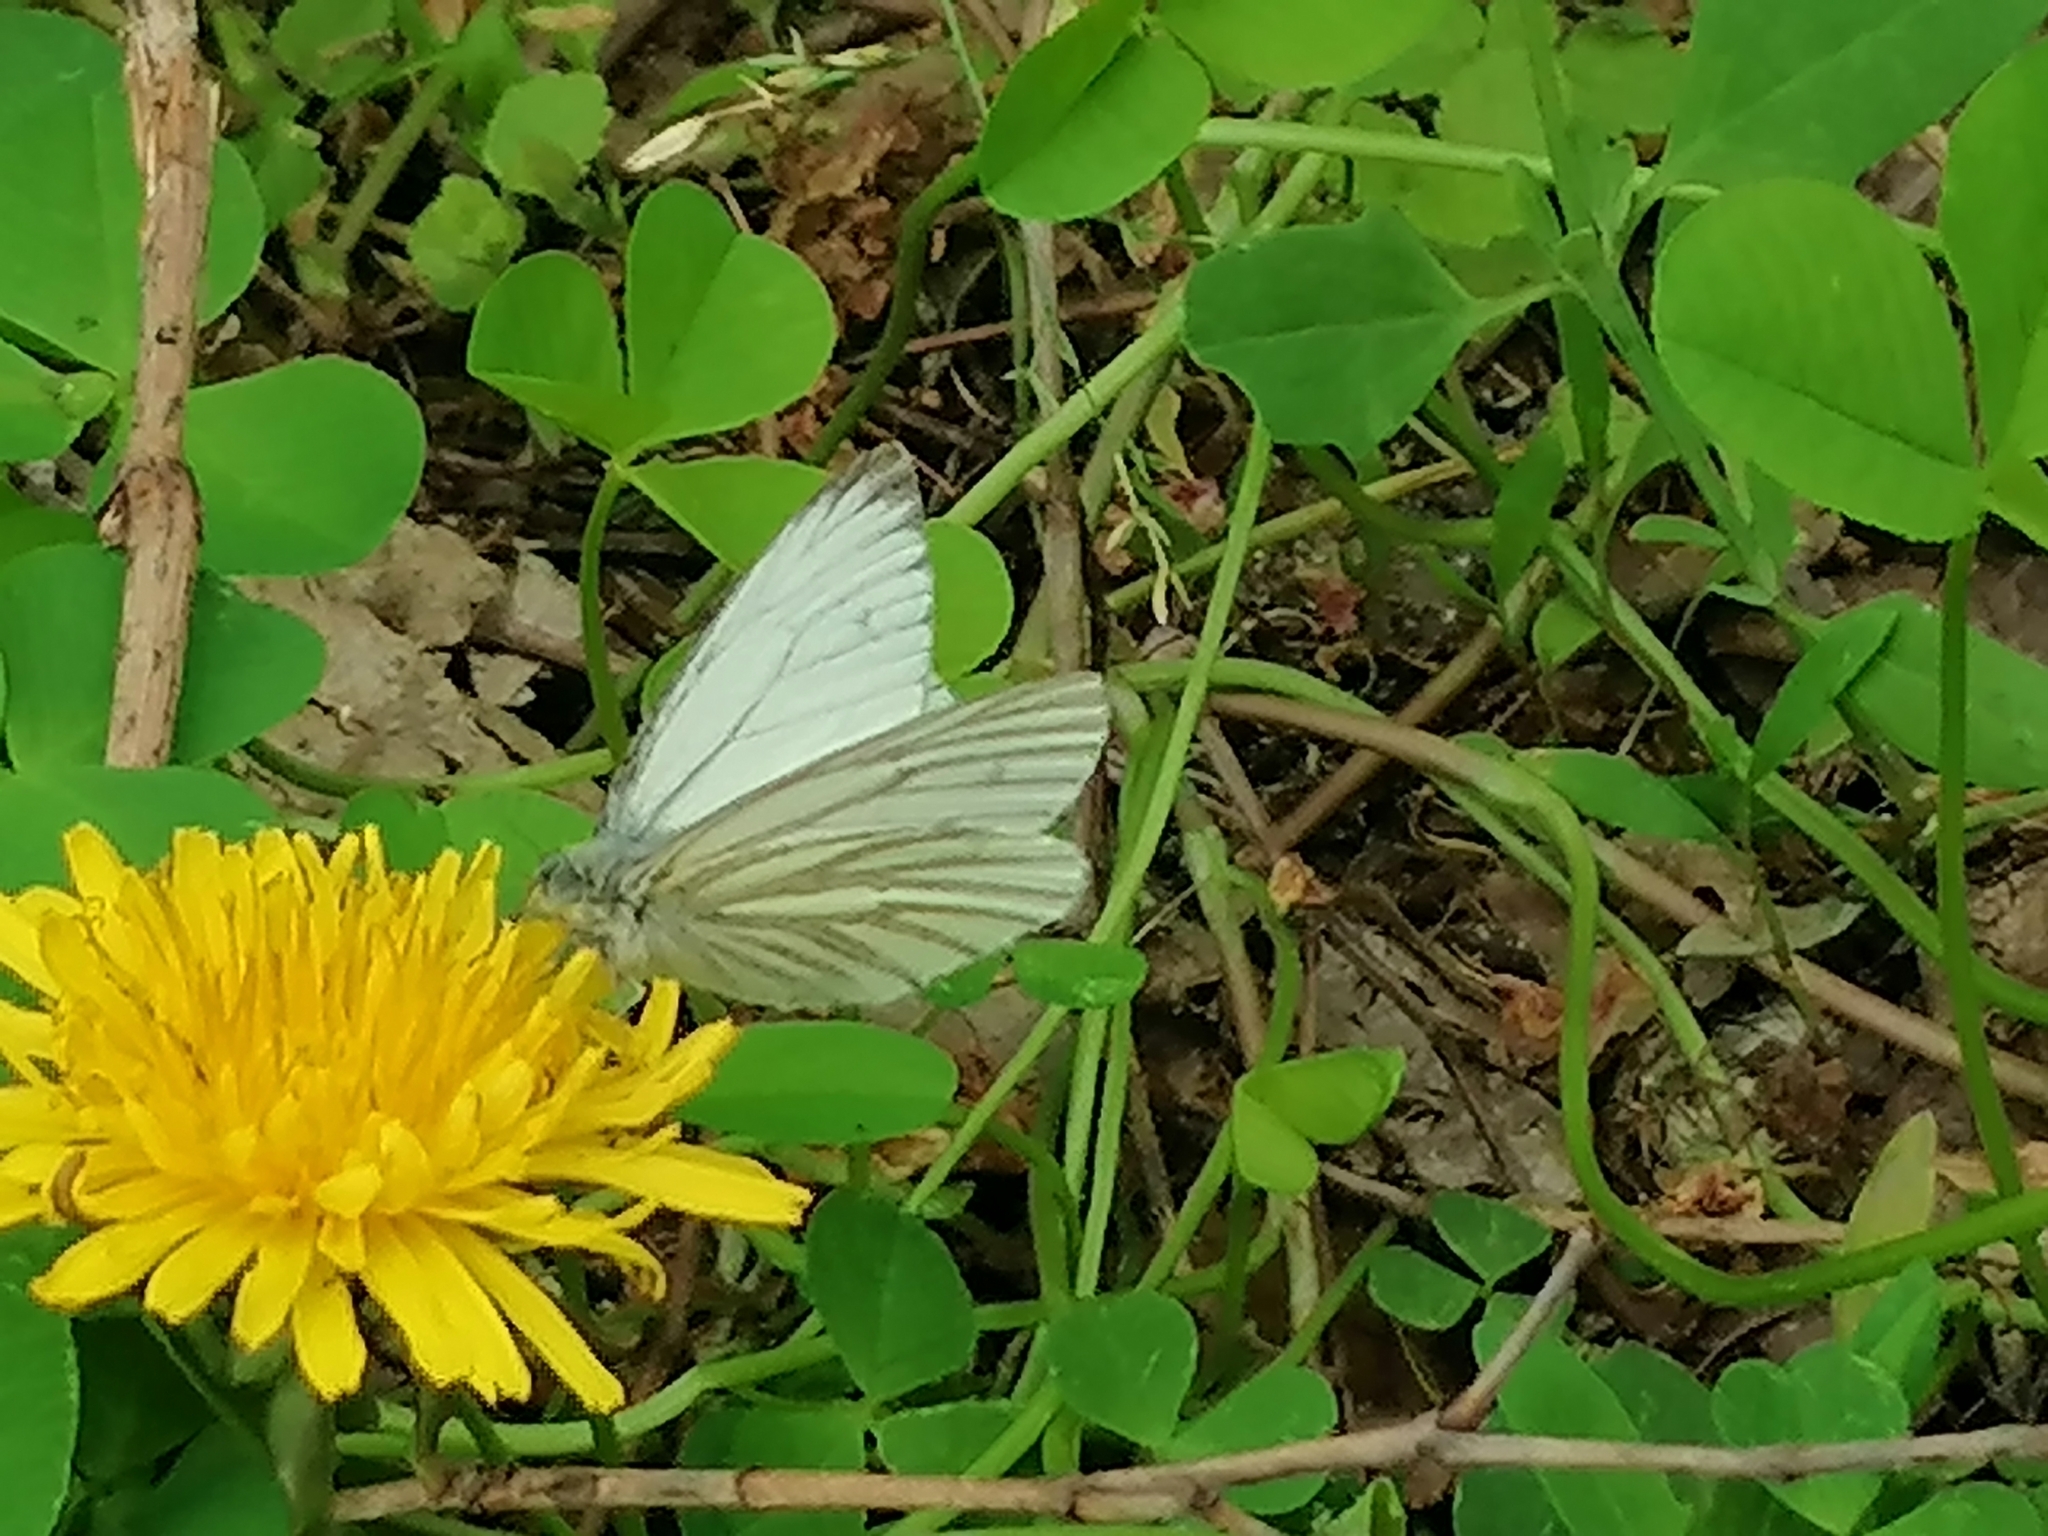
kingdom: Animalia
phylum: Arthropoda
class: Insecta
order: Lepidoptera
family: Pieridae
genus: Pieris
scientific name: Pieris napi
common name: Green-veined white
